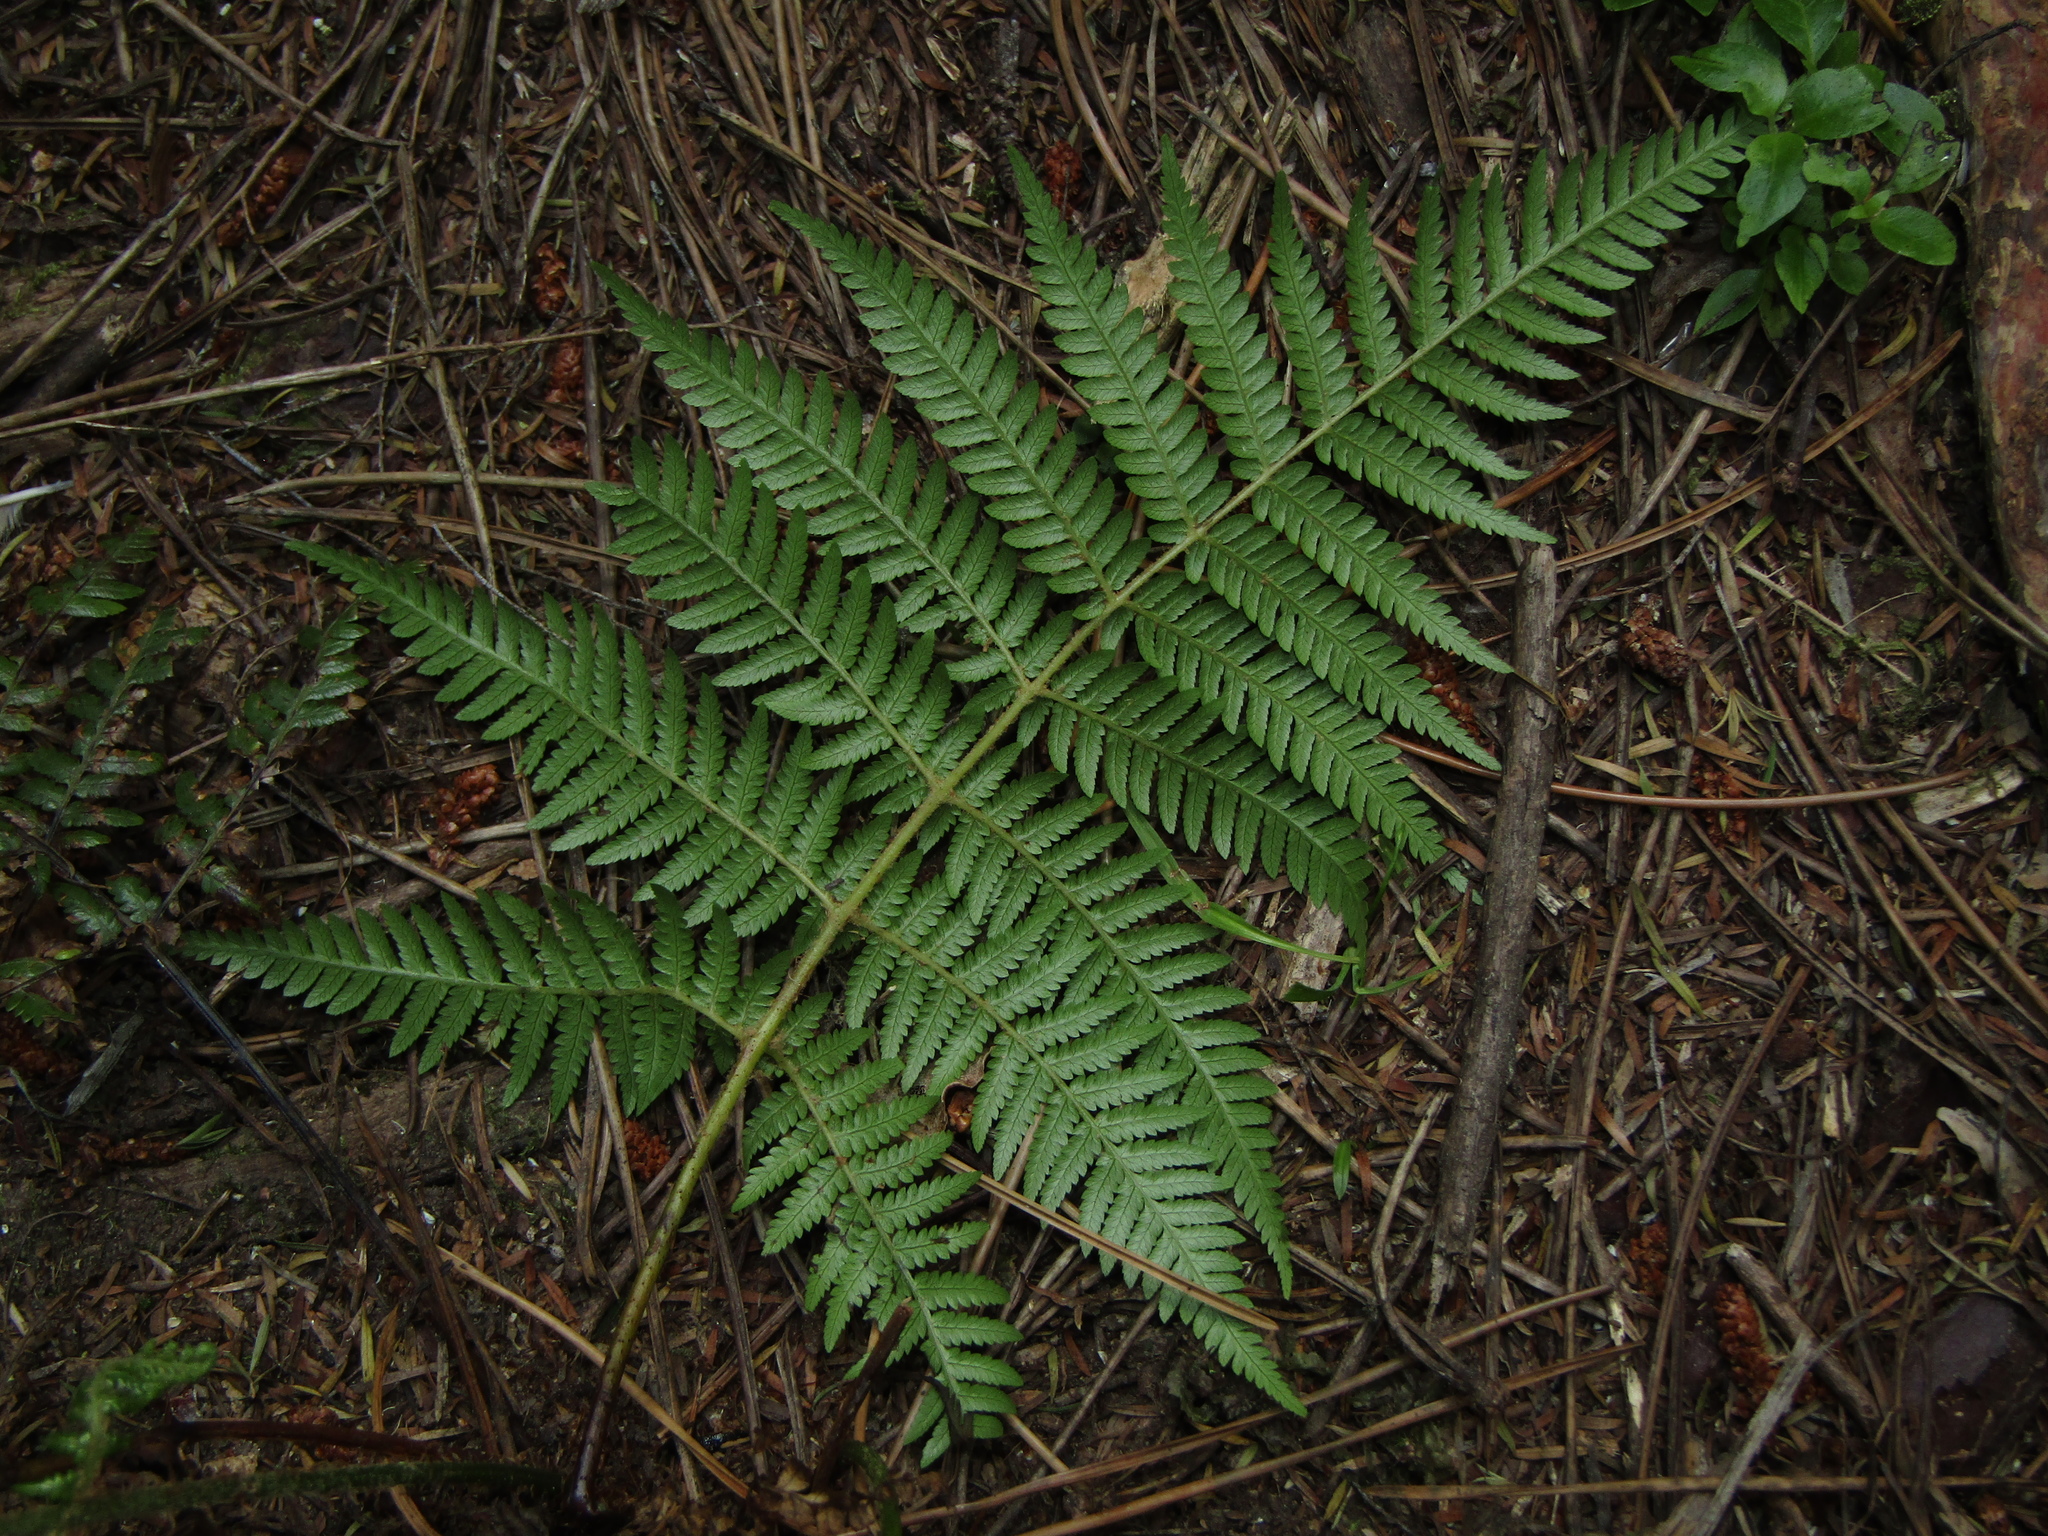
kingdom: Plantae
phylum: Tracheophyta
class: Polypodiopsida
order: Cyatheales
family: Cyatheaceae
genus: Alsophila
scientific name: Alsophila dealbata
